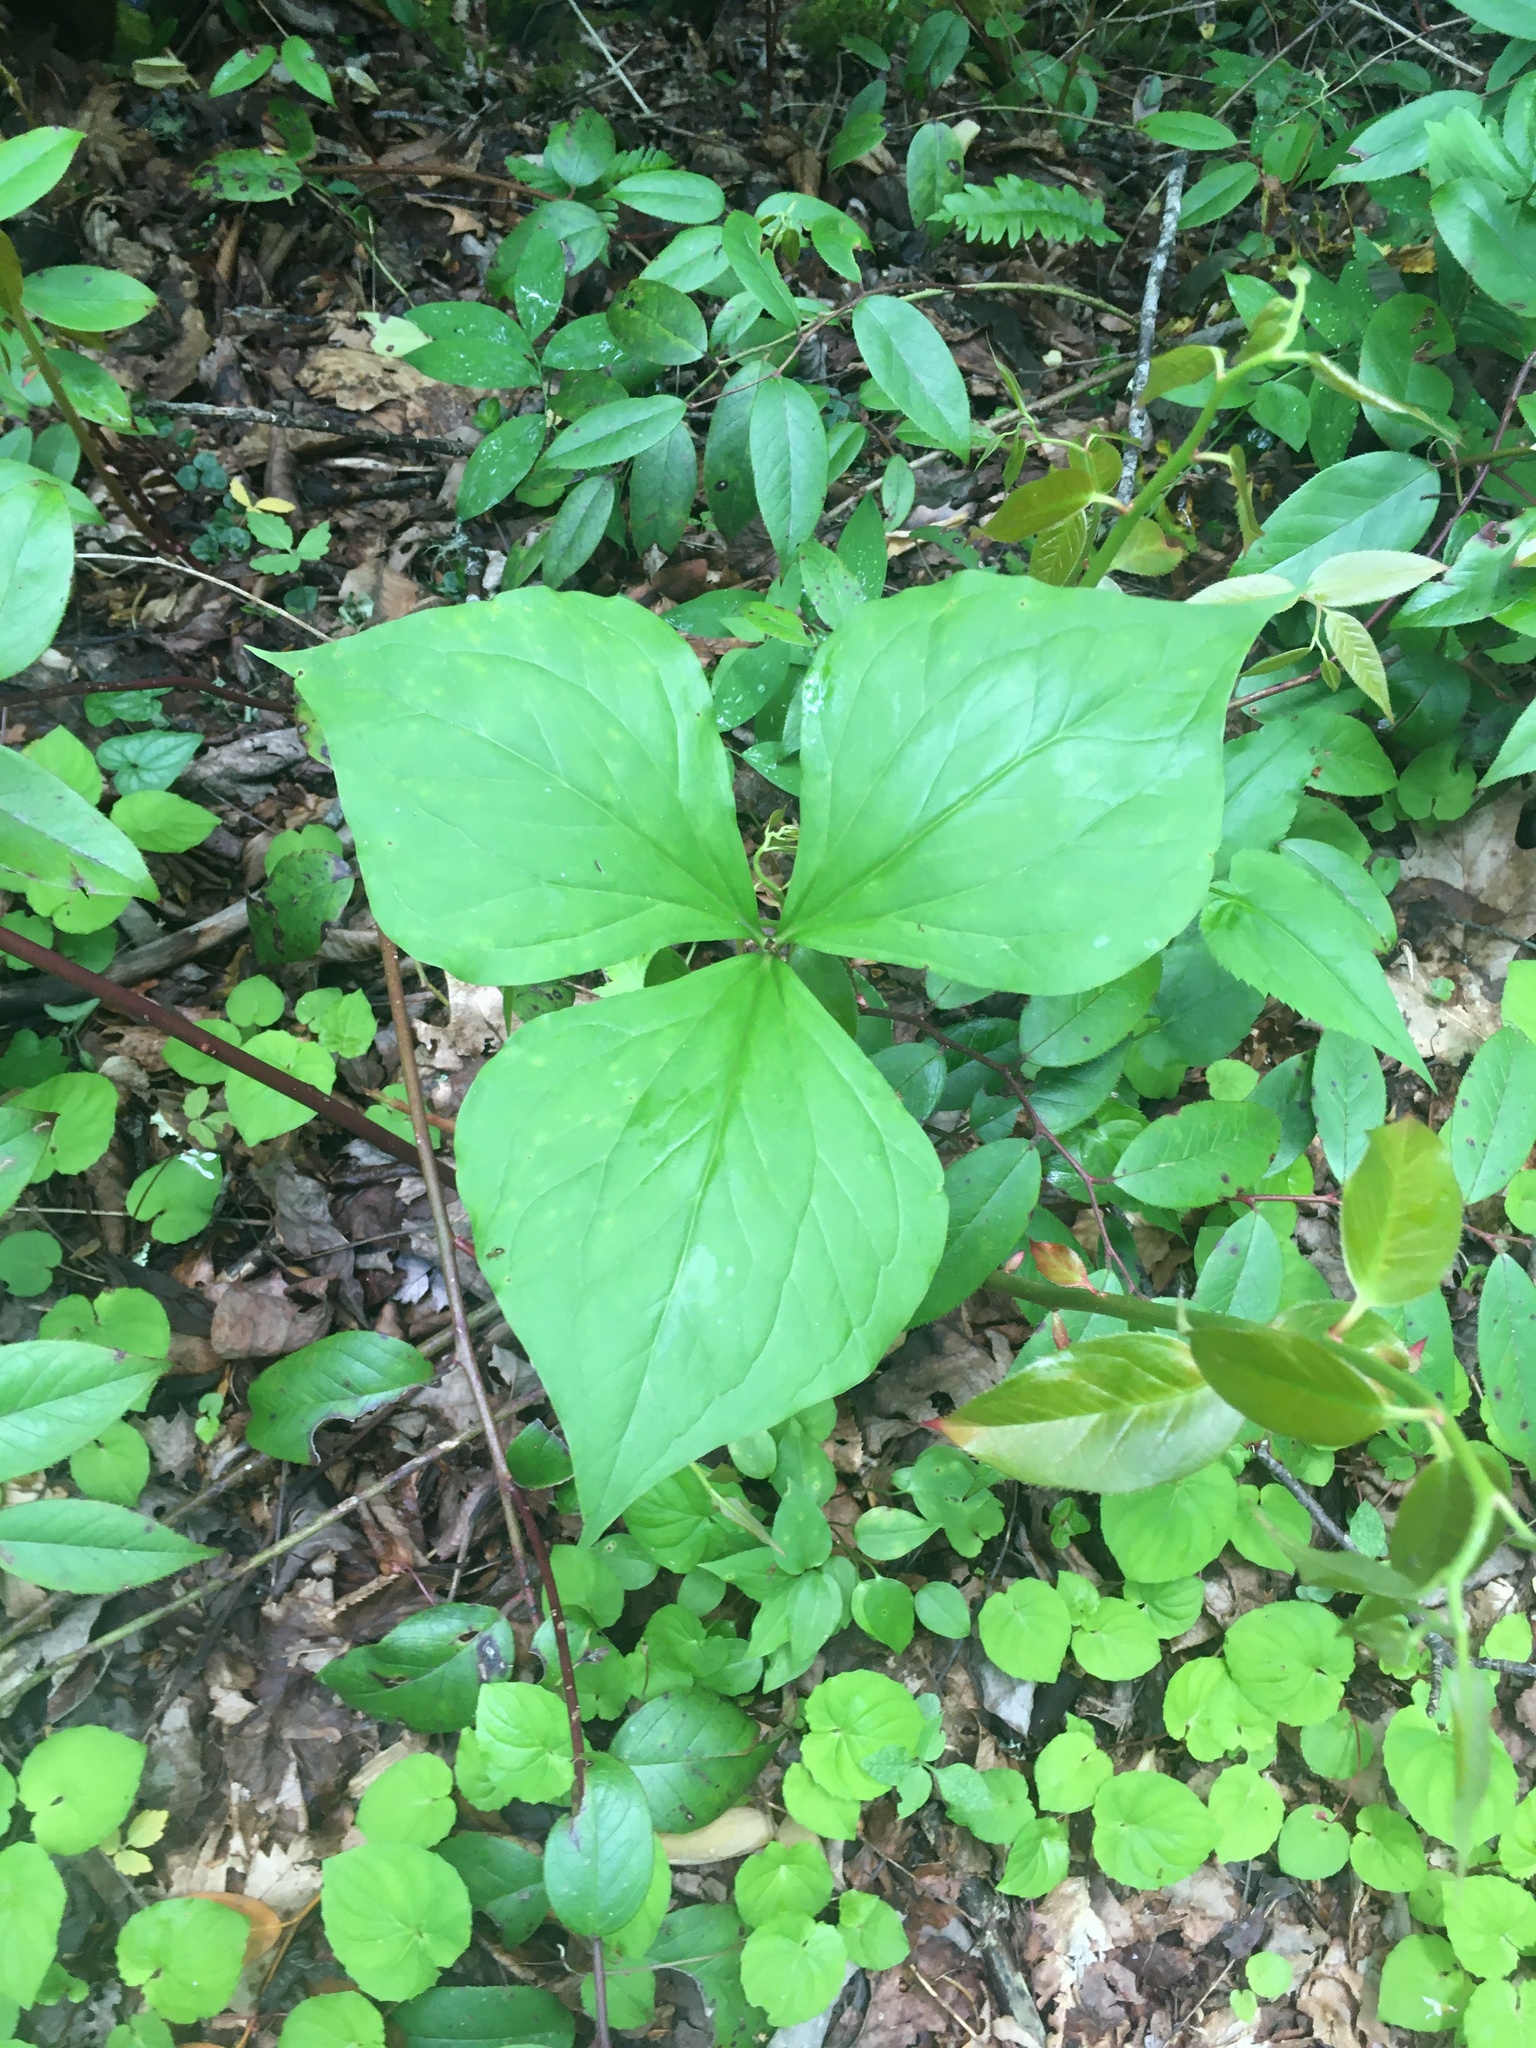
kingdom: Plantae
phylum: Tracheophyta
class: Liliopsida
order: Liliales
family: Melanthiaceae
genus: Trillium
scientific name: Trillium vaseyi
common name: Sweet trillium
